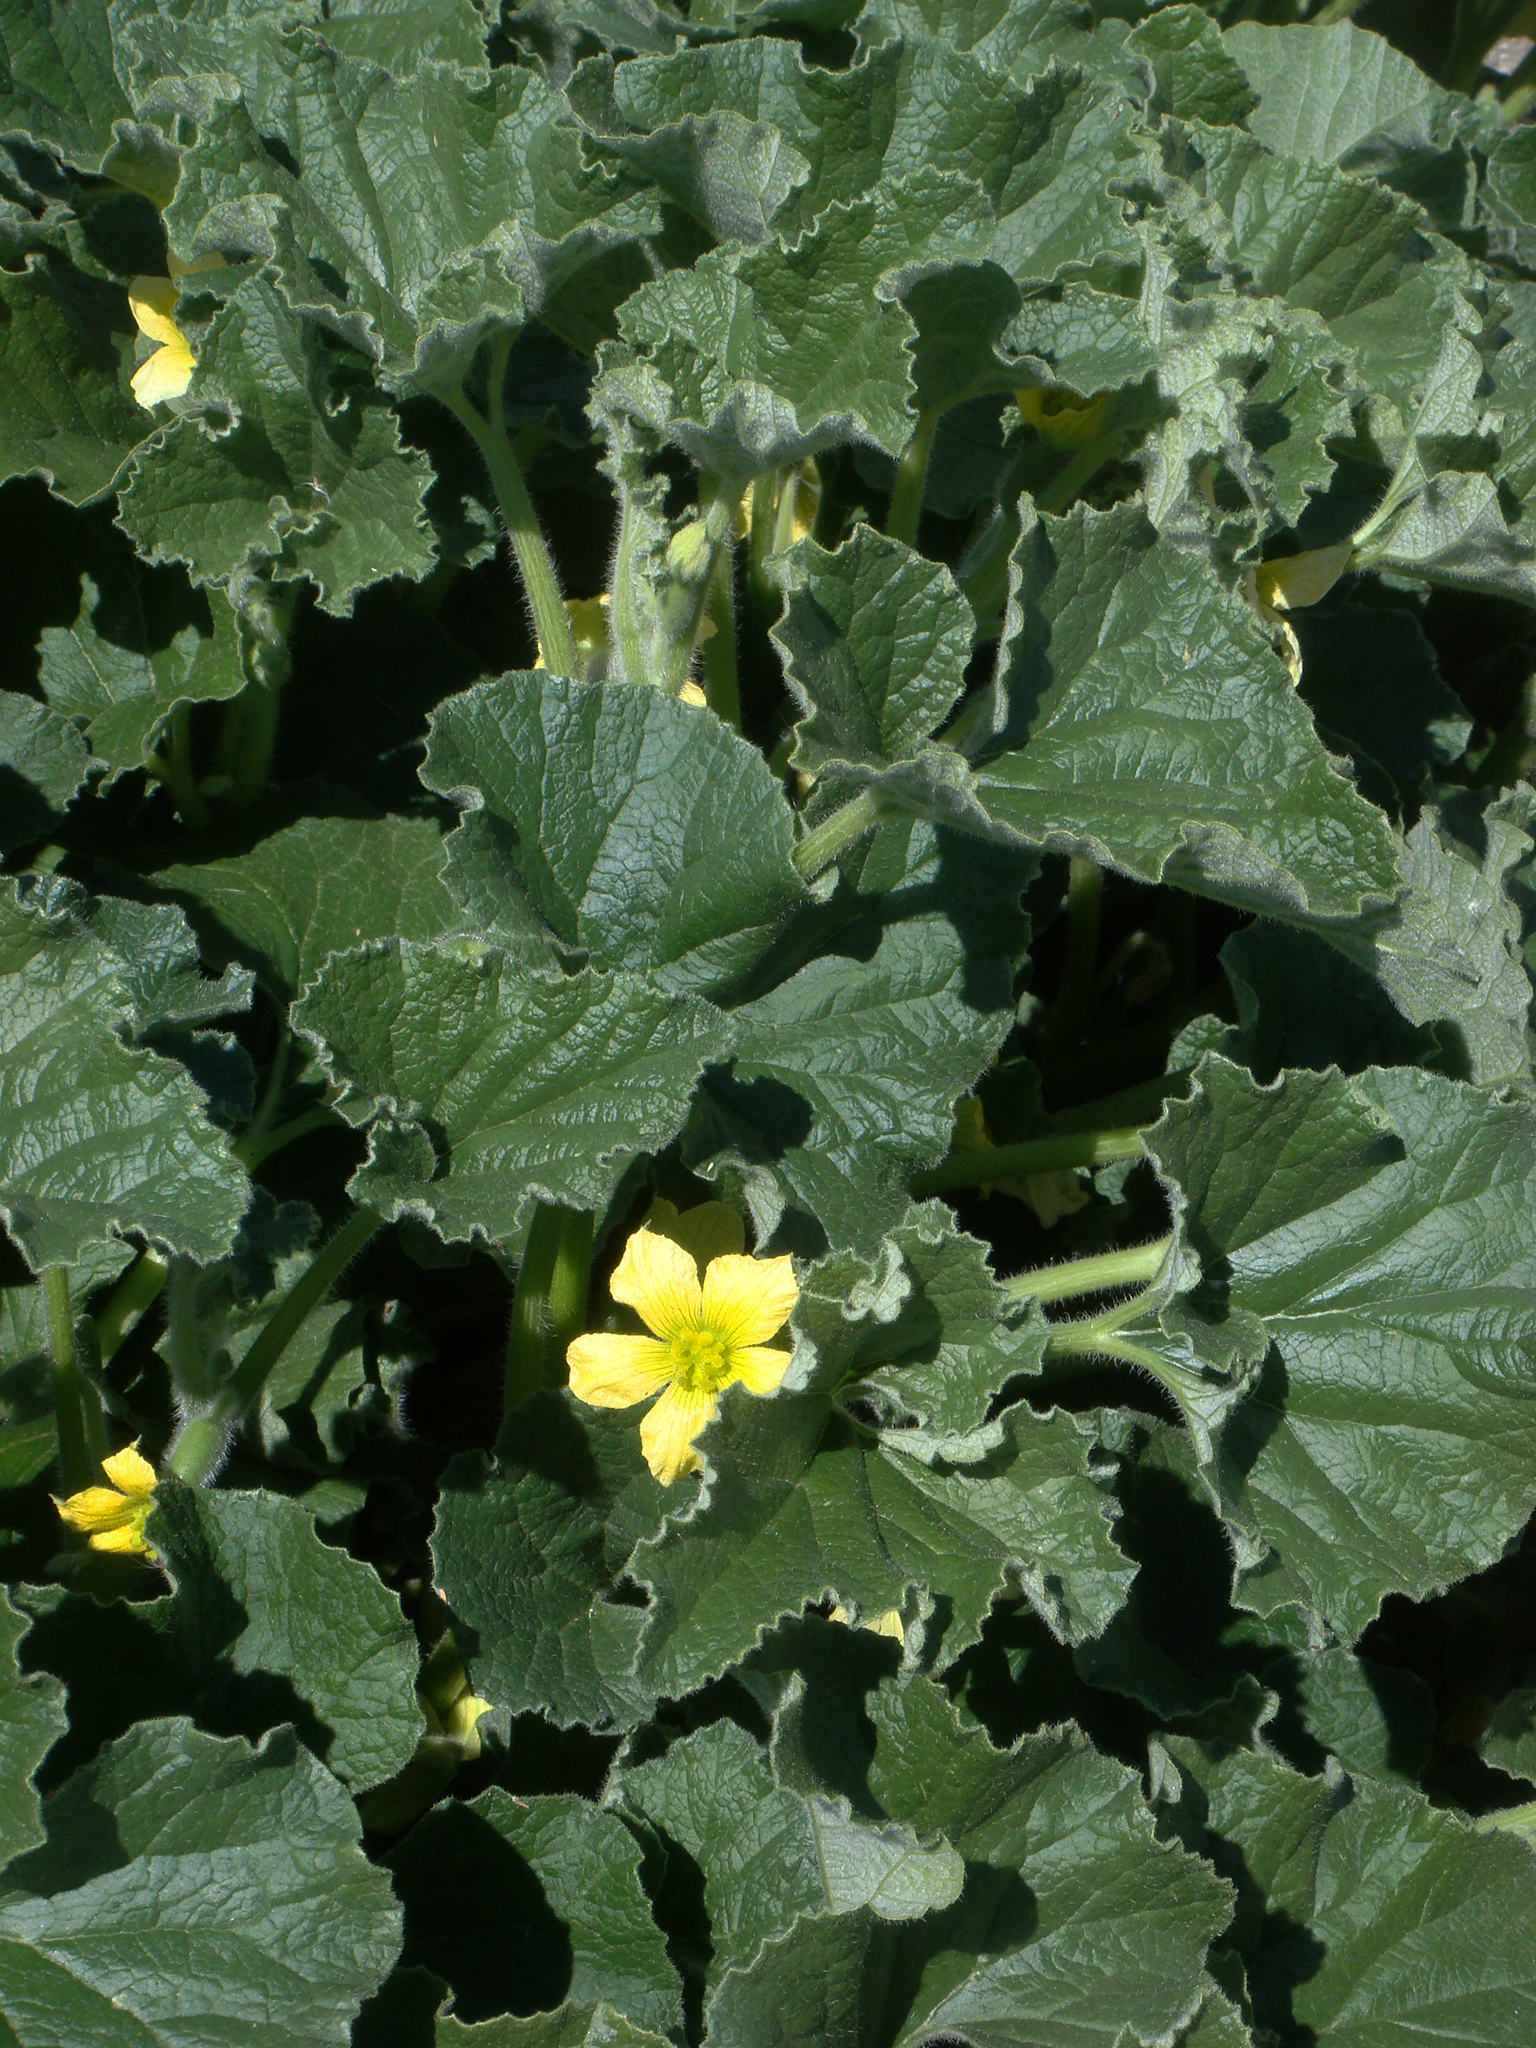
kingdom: Plantae
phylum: Tracheophyta
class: Magnoliopsida
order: Cucurbitales
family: Cucurbitaceae
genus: Ecballium
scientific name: Ecballium elaterium
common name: Squirting cucumber
